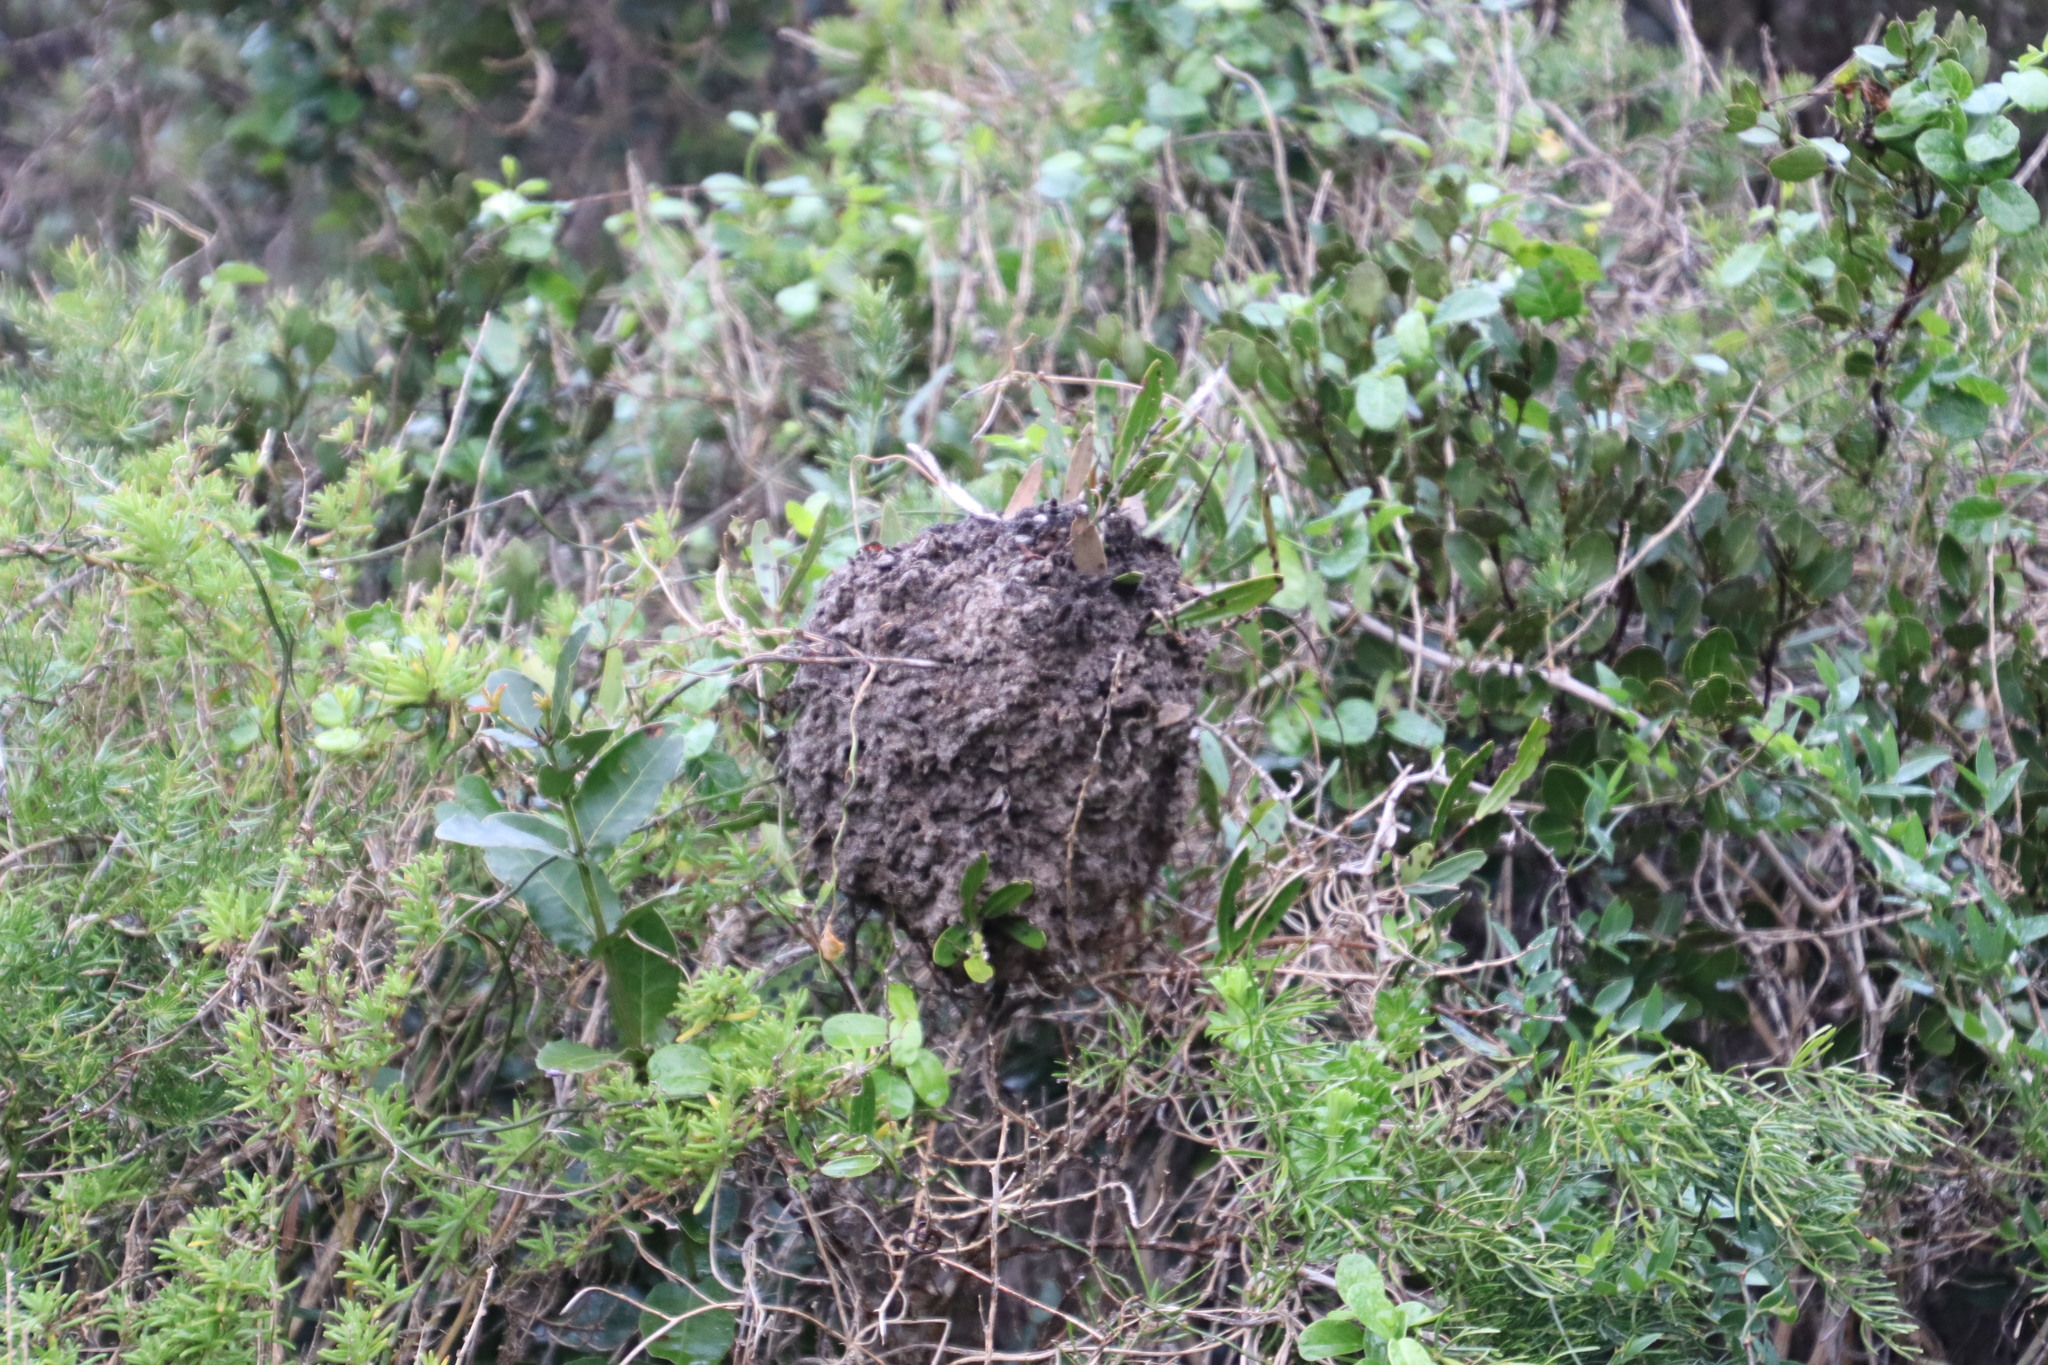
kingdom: Animalia
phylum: Arthropoda
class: Insecta
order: Hymenoptera
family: Formicidae
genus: Crematogaster
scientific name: Crematogaster peringueyi
